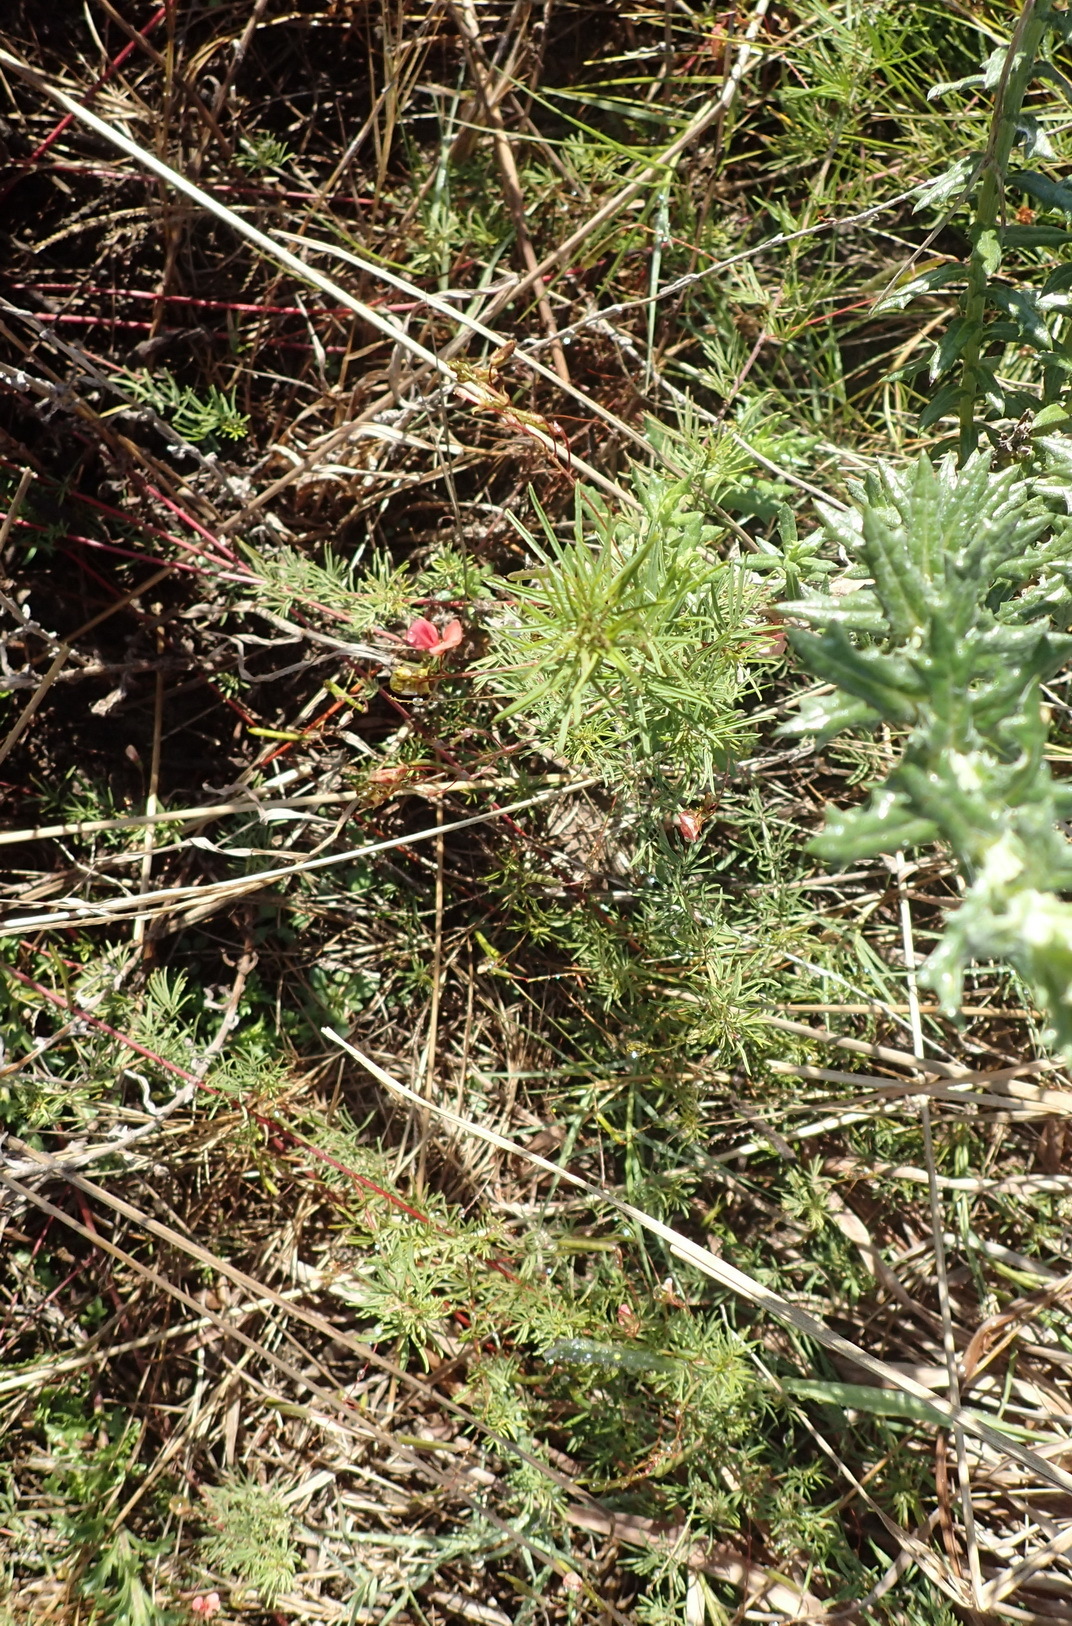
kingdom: Plantae
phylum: Tracheophyta
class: Magnoliopsida
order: Fabales
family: Fabaceae
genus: Indigofera
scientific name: Indigofera verrucosa
